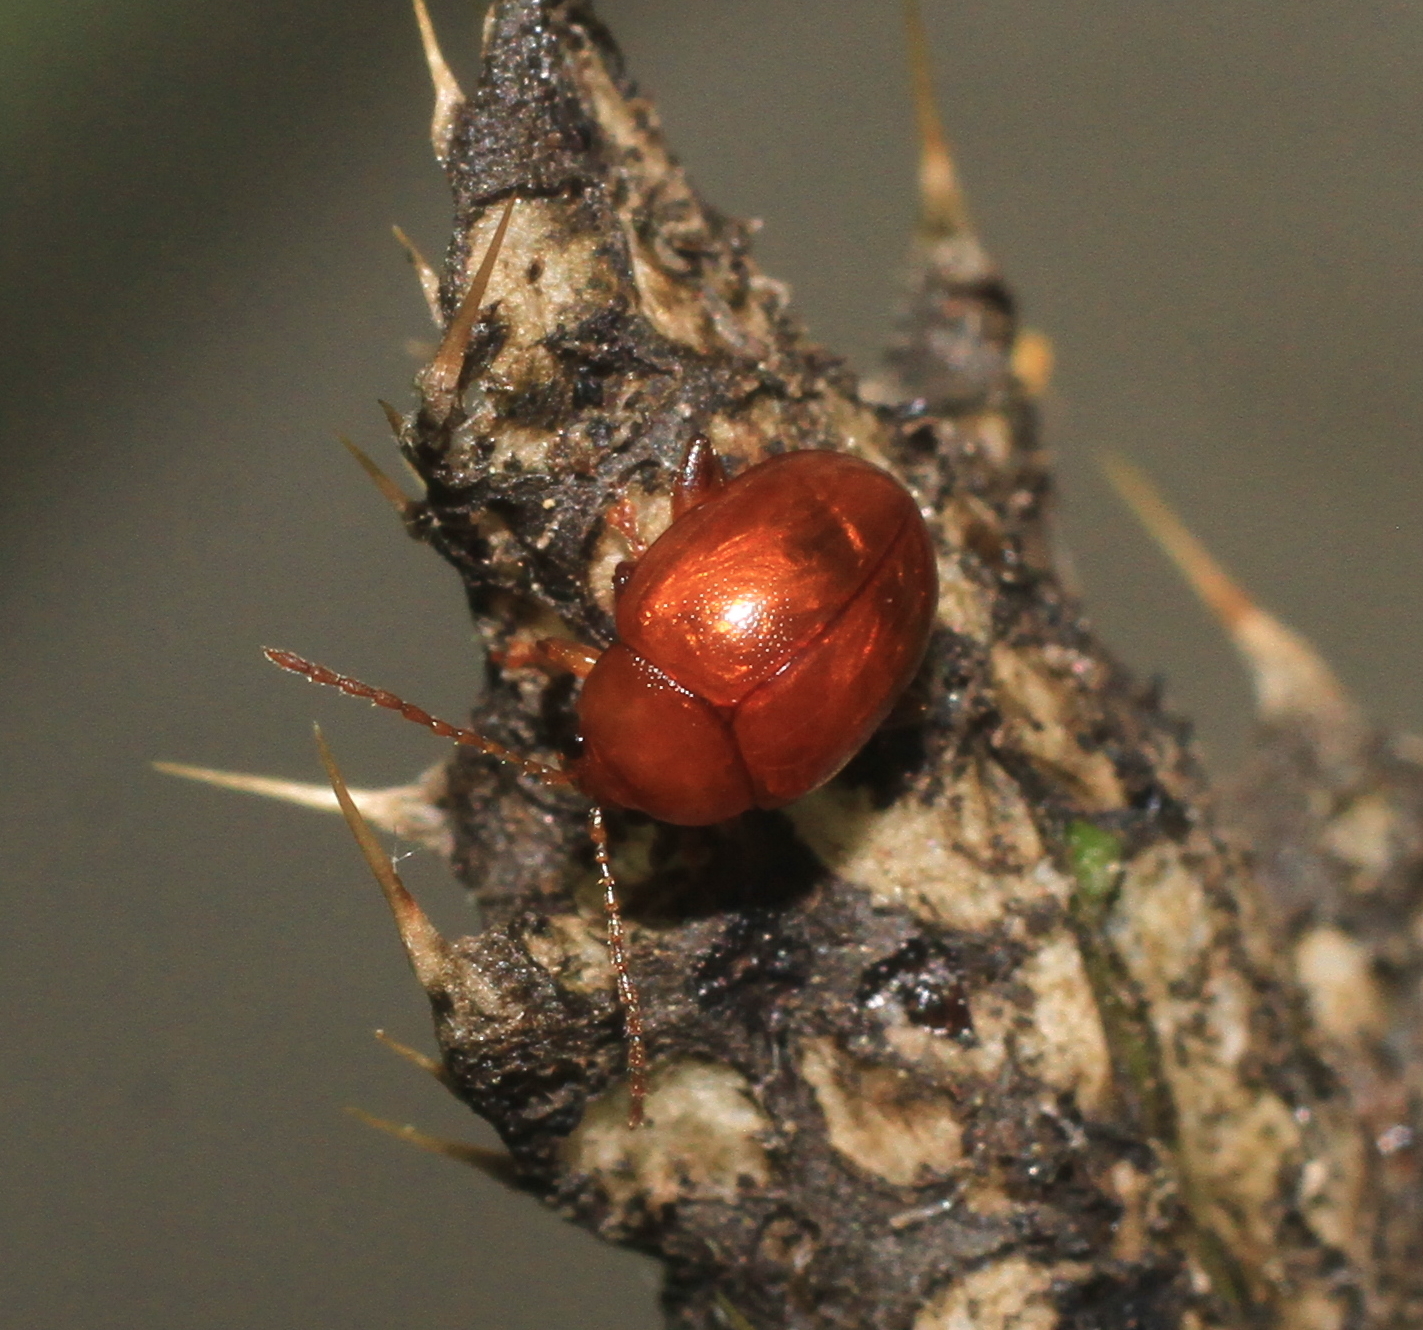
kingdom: Animalia
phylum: Arthropoda
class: Insecta
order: Coleoptera
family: Chrysomelidae
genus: Pistosia
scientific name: Pistosia testacea
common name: Leaf beetle
